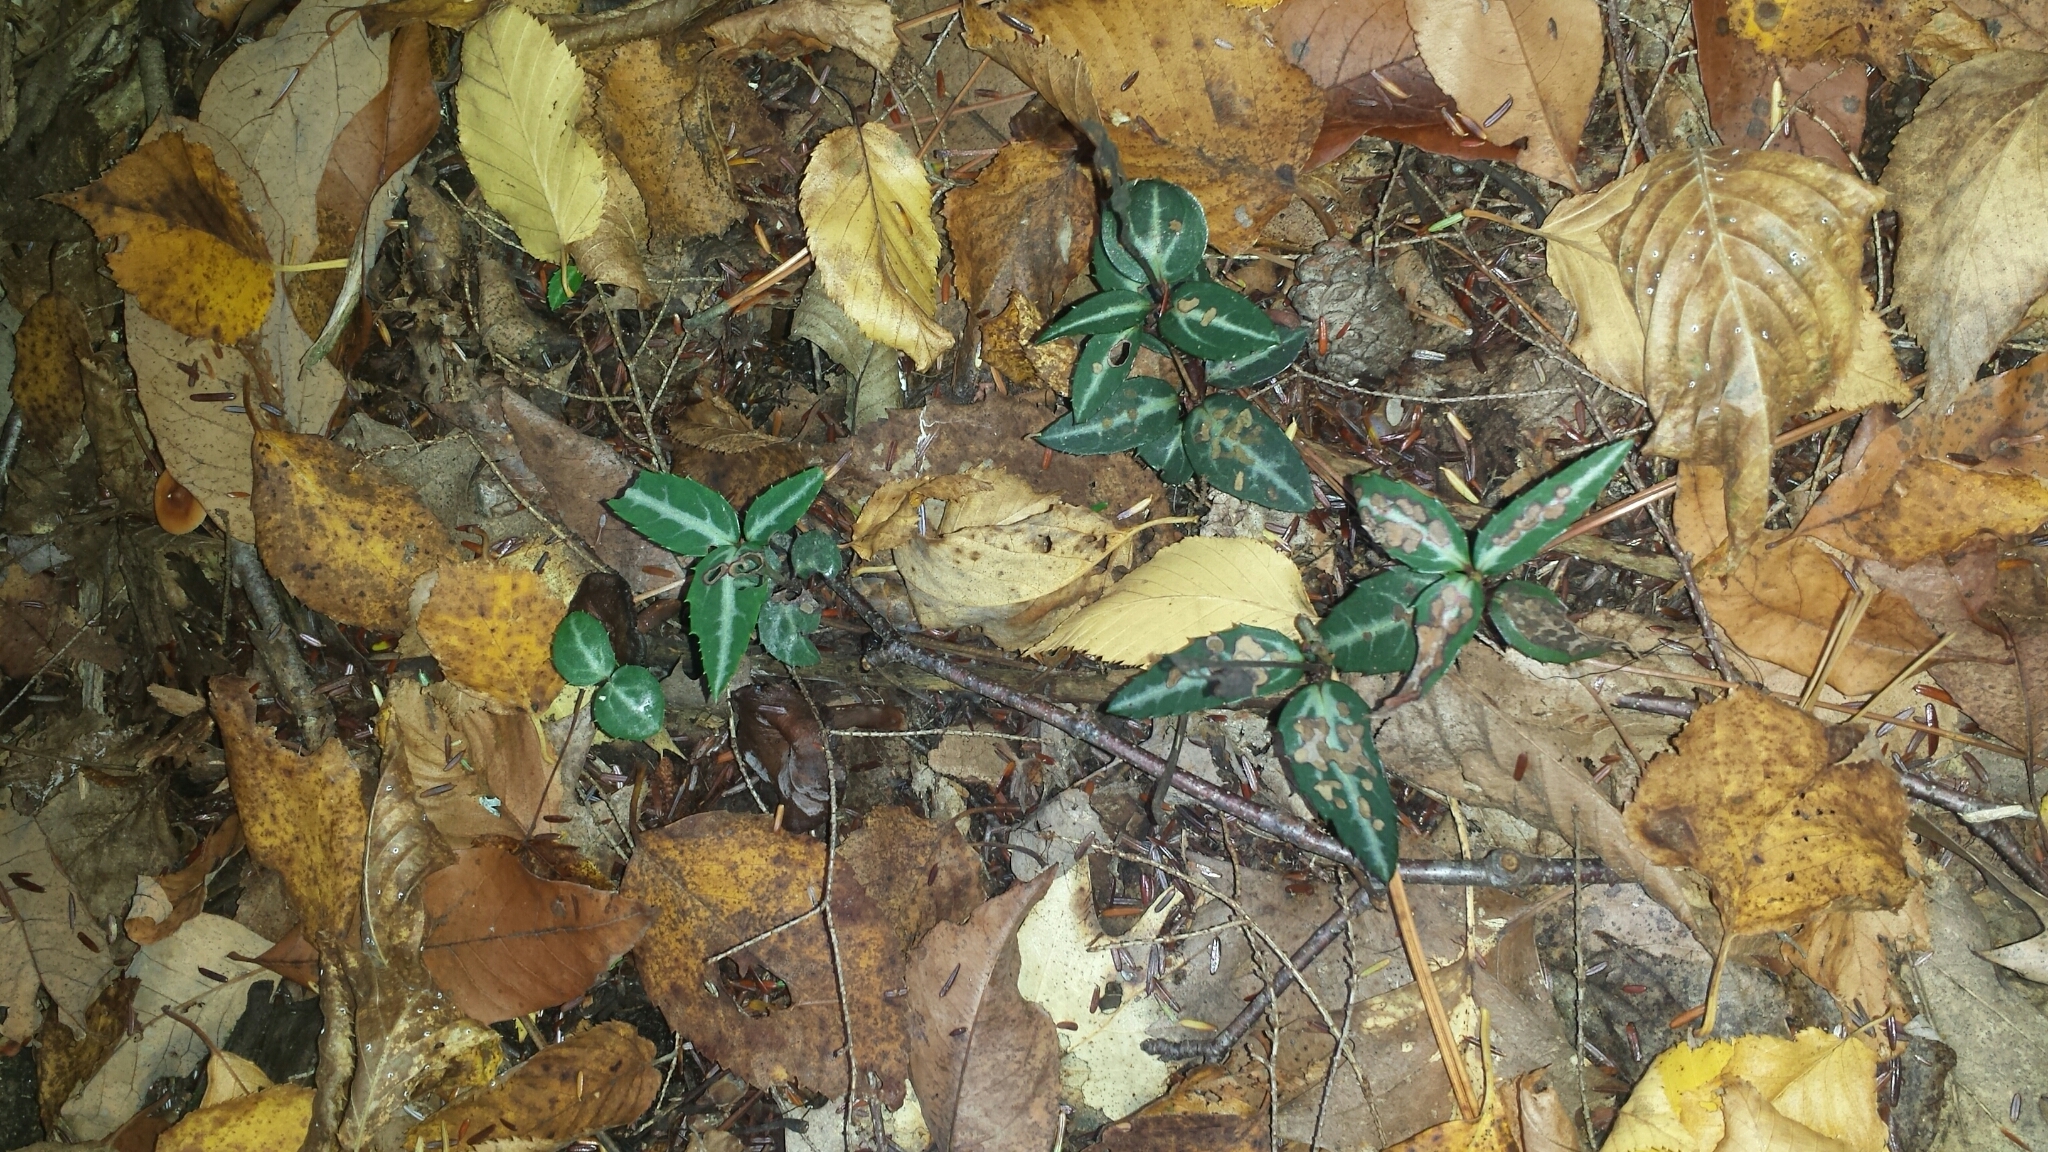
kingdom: Plantae
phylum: Tracheophyta
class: Magnoliopsida
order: Ericales
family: Ericaceae
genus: Chimaphila
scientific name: Chimaphila maculata
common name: Spotted pipsissewa
